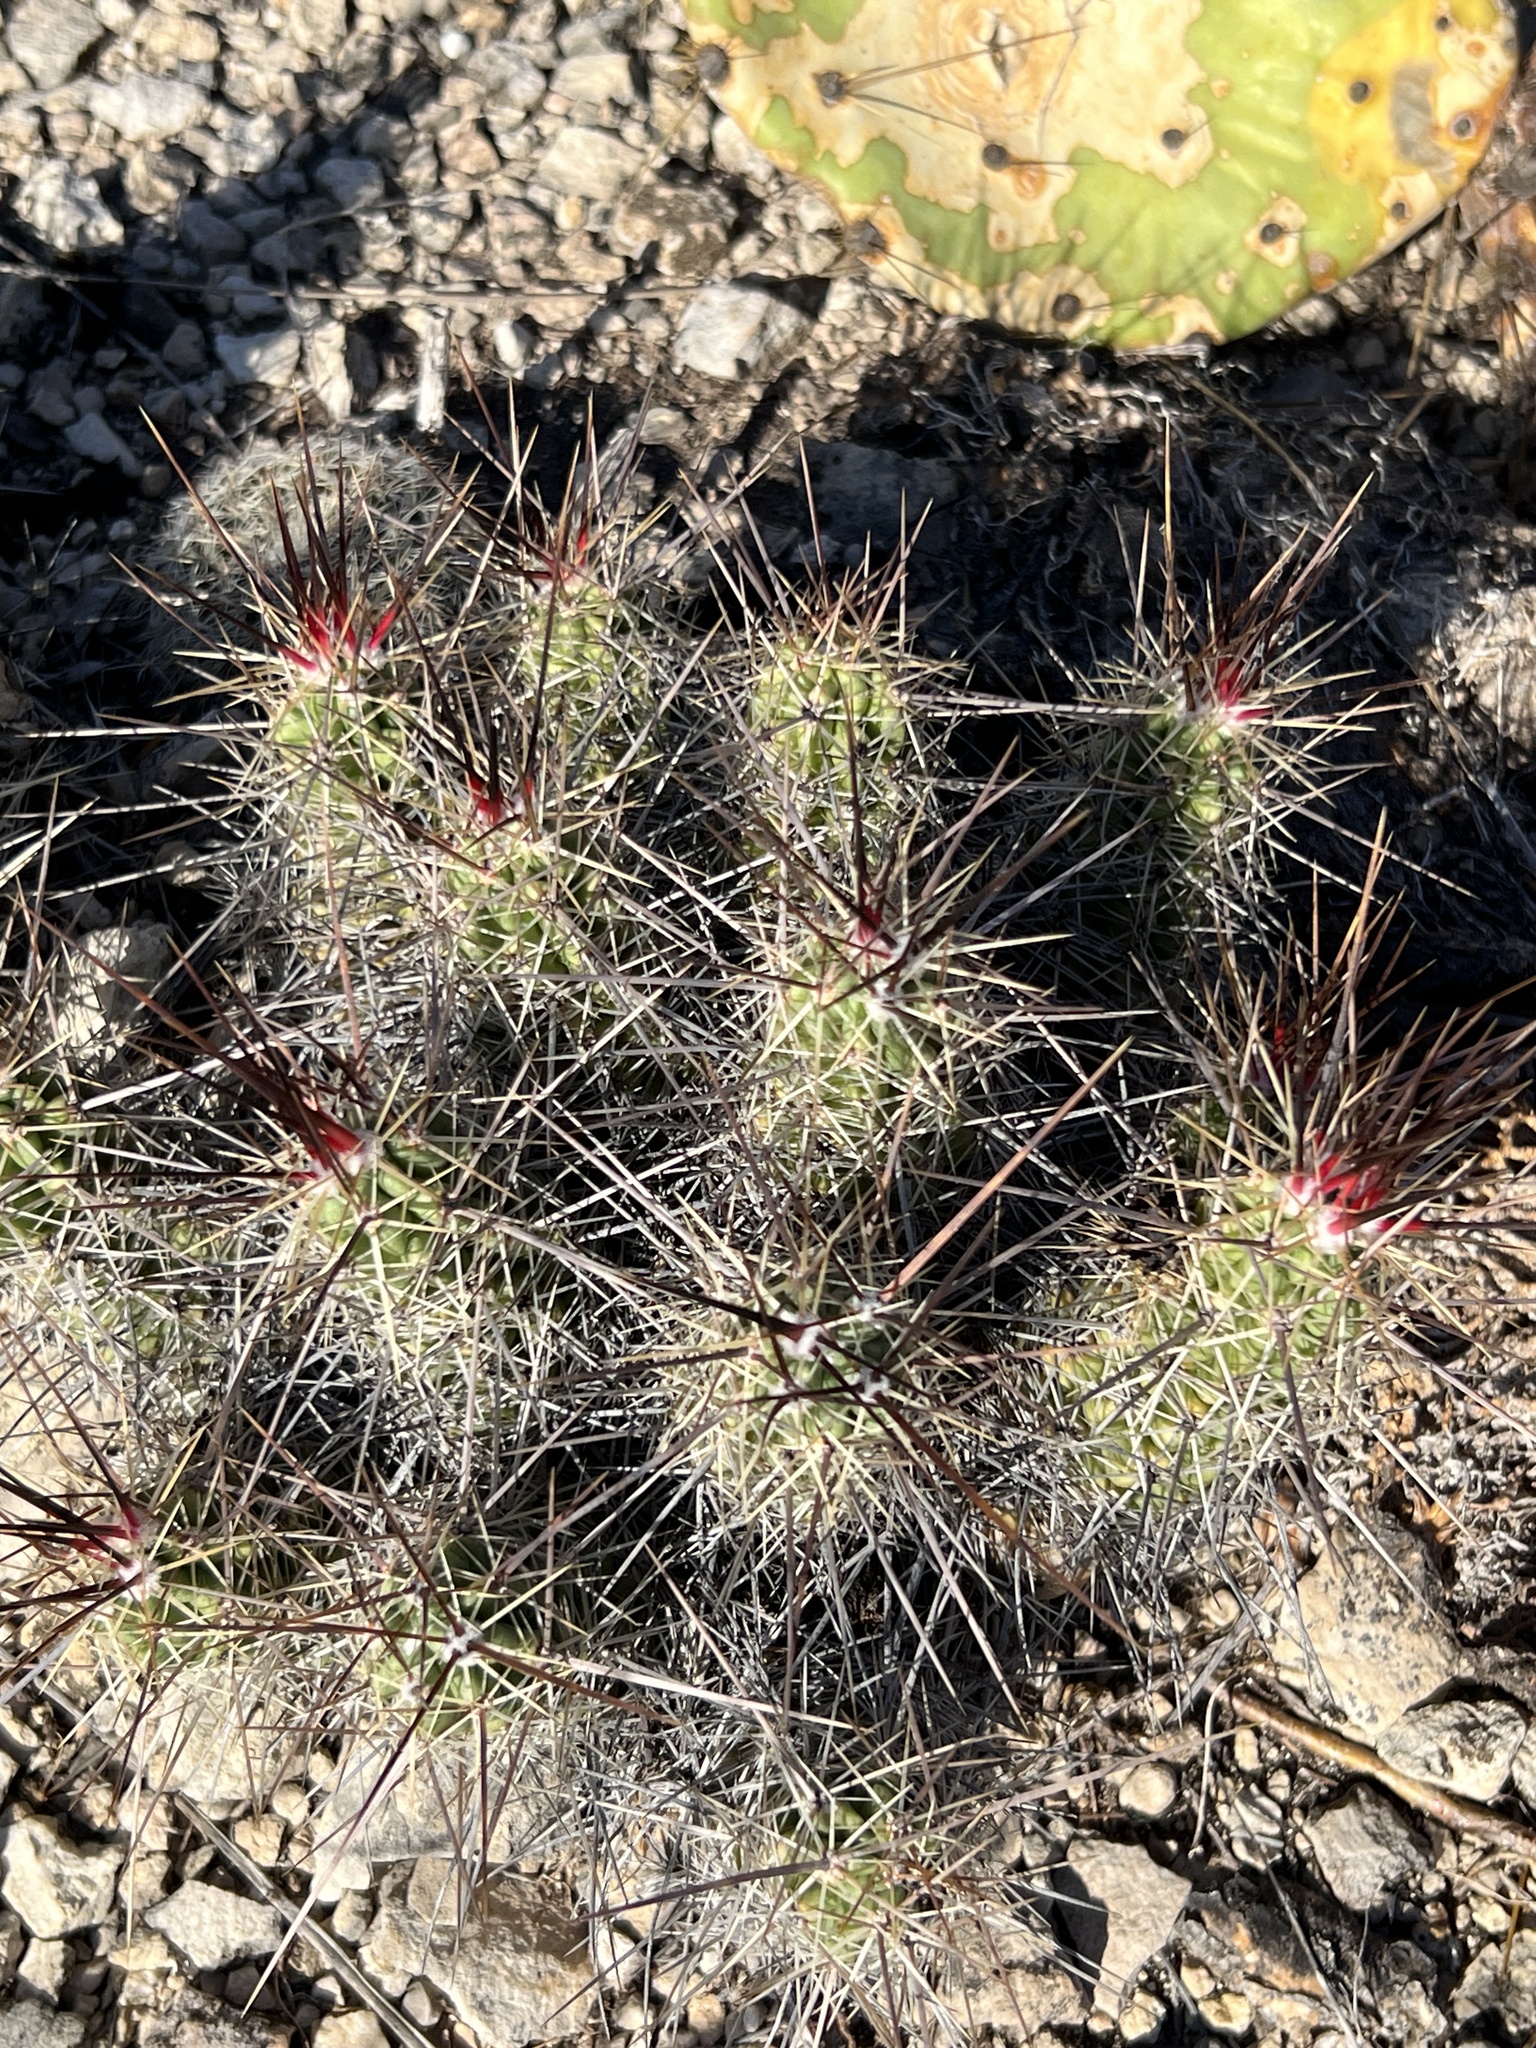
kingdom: Plantae
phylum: Tracheophyta
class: Magnoliopsida
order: Caryophyllales
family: Cactaceae
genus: Echinocereus
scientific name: Echinocereus enneacanthus
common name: Pitaya
